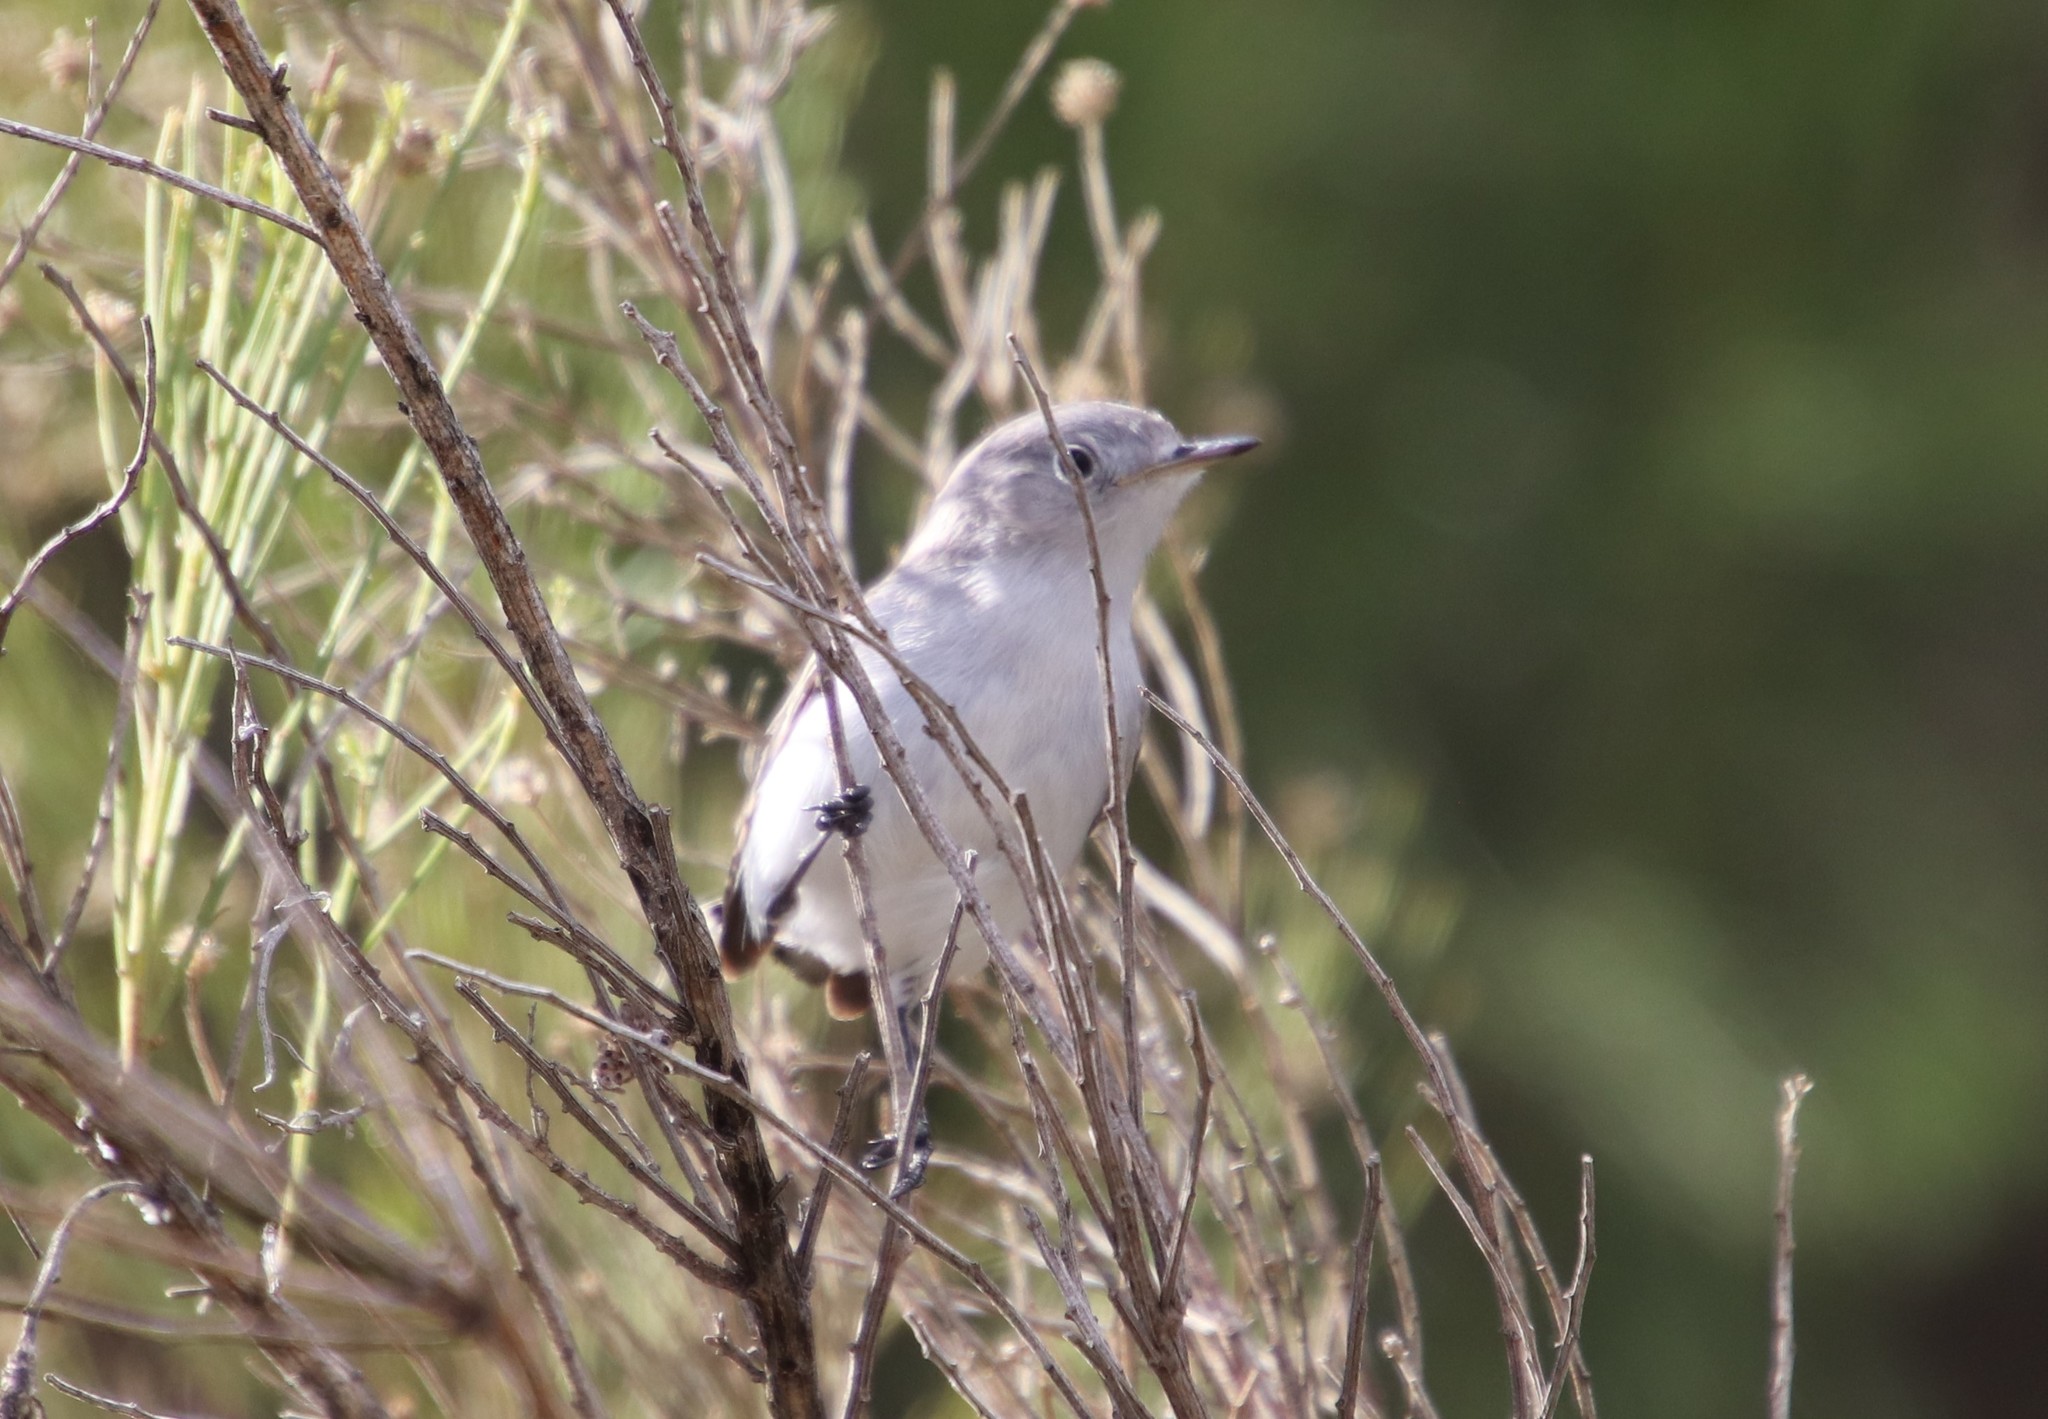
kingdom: Animalia
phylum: Chordata
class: Aves
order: Passeriformes
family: Polioptilidae
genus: Polioptila
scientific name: Polioptila caerulea
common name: Blue-gray gnatcatcher
